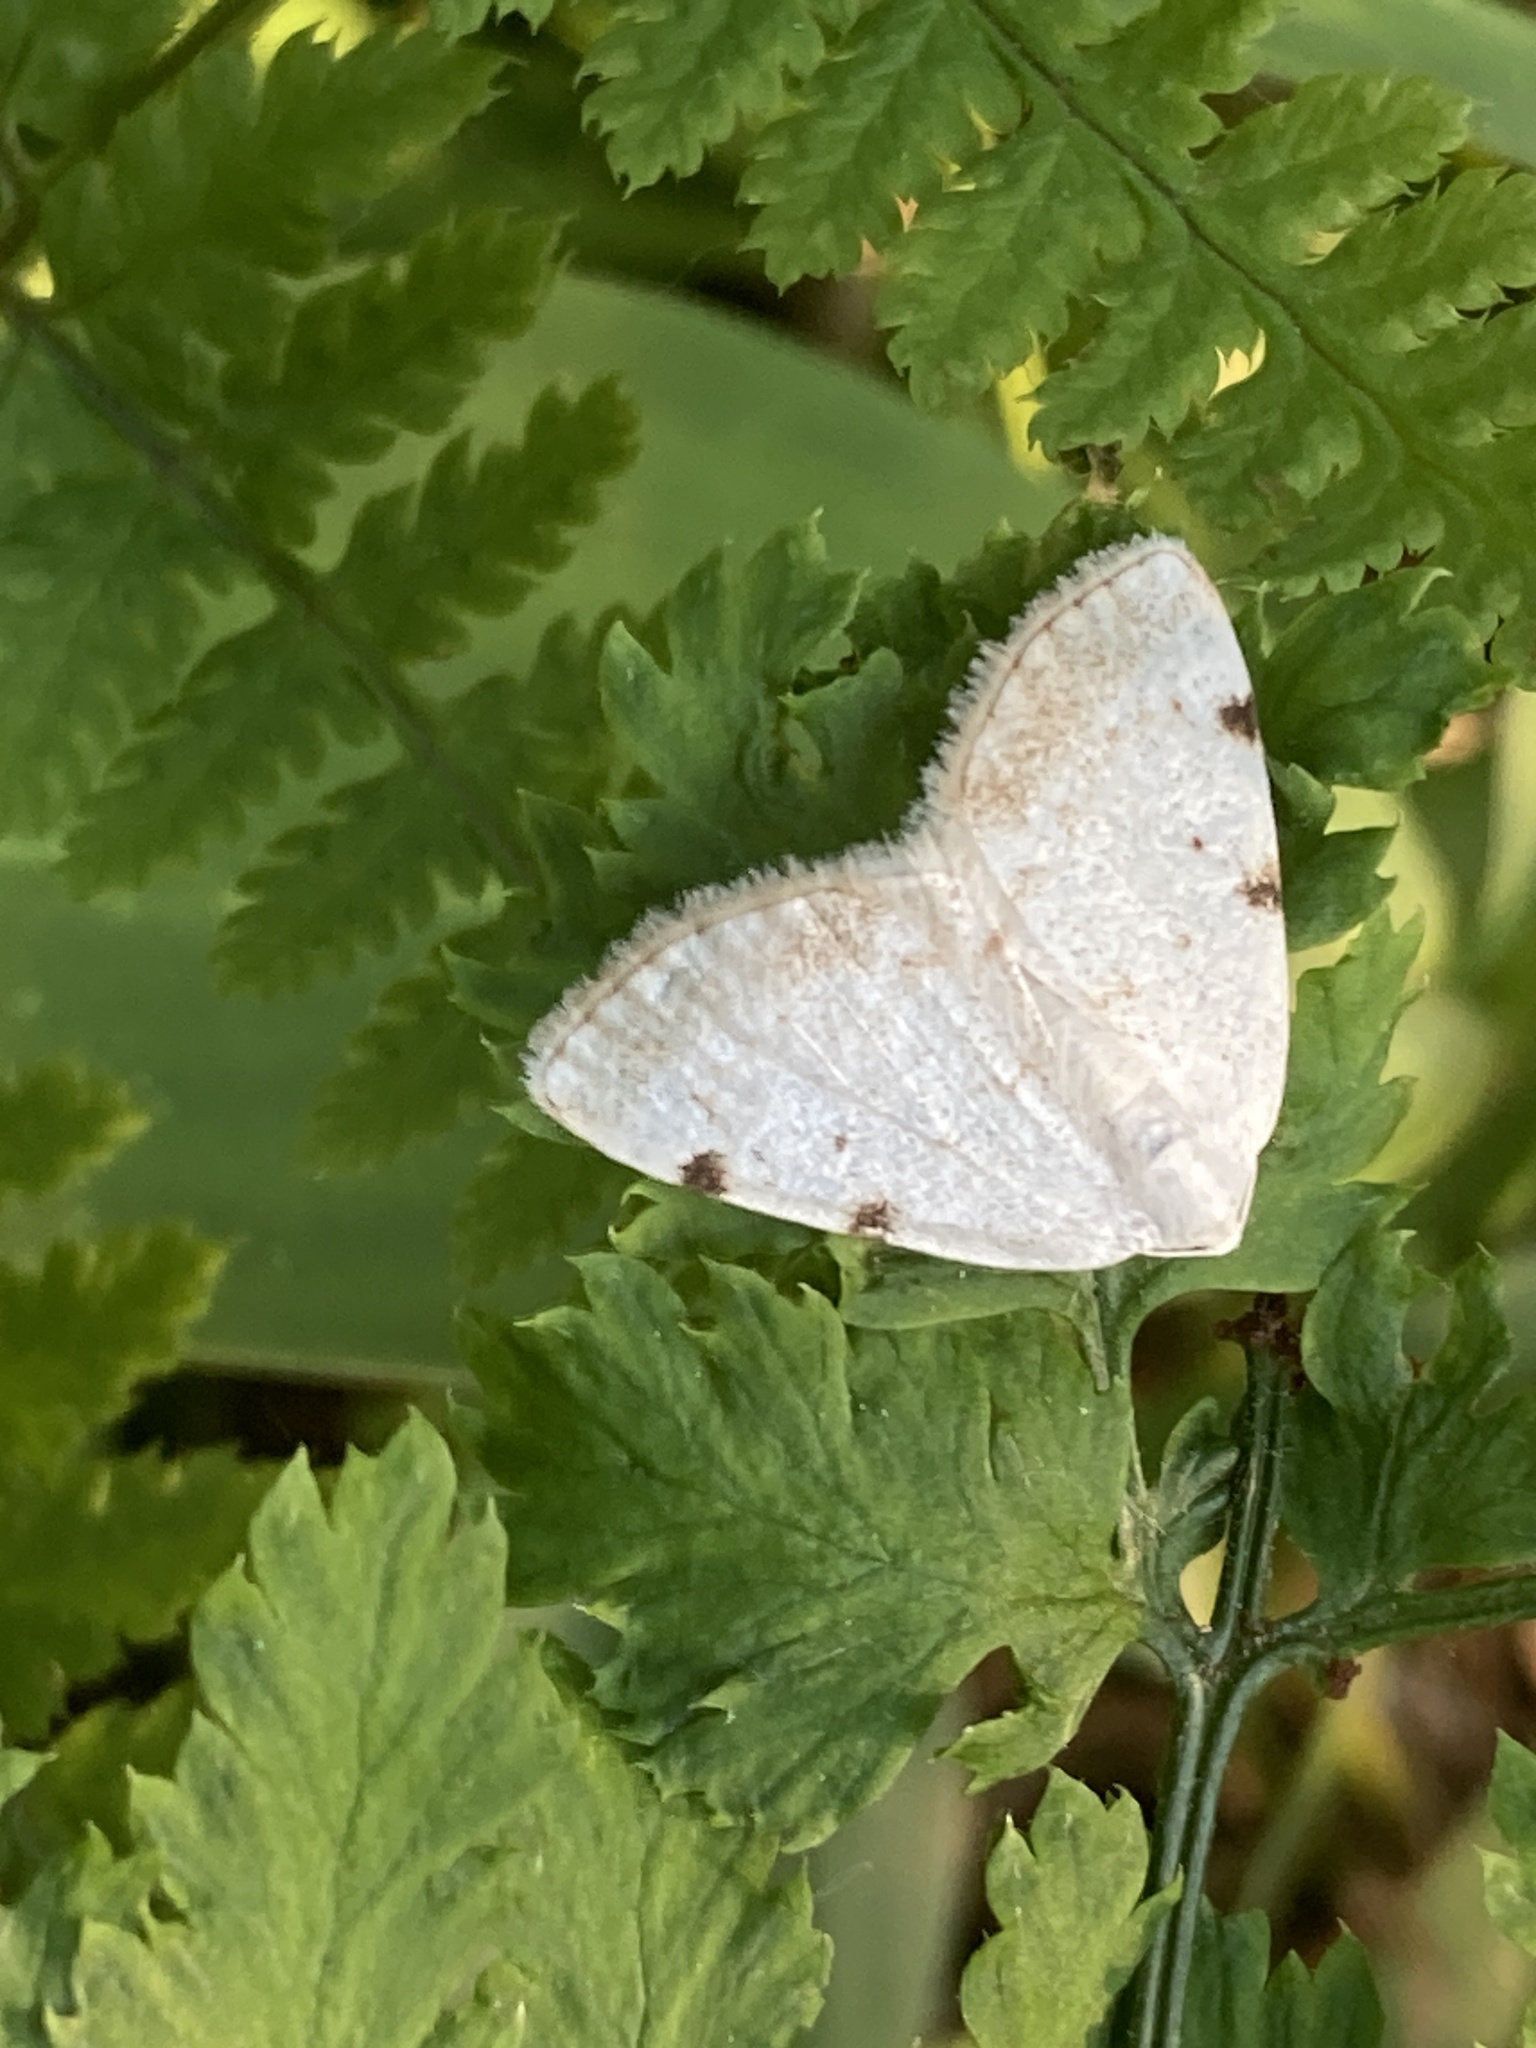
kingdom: Animalia
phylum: Arthropoda
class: Insecta
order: Lepidoptera
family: Geometridae
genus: Lomographa
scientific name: Lomographa bimaculata
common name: White-pinion spotted
